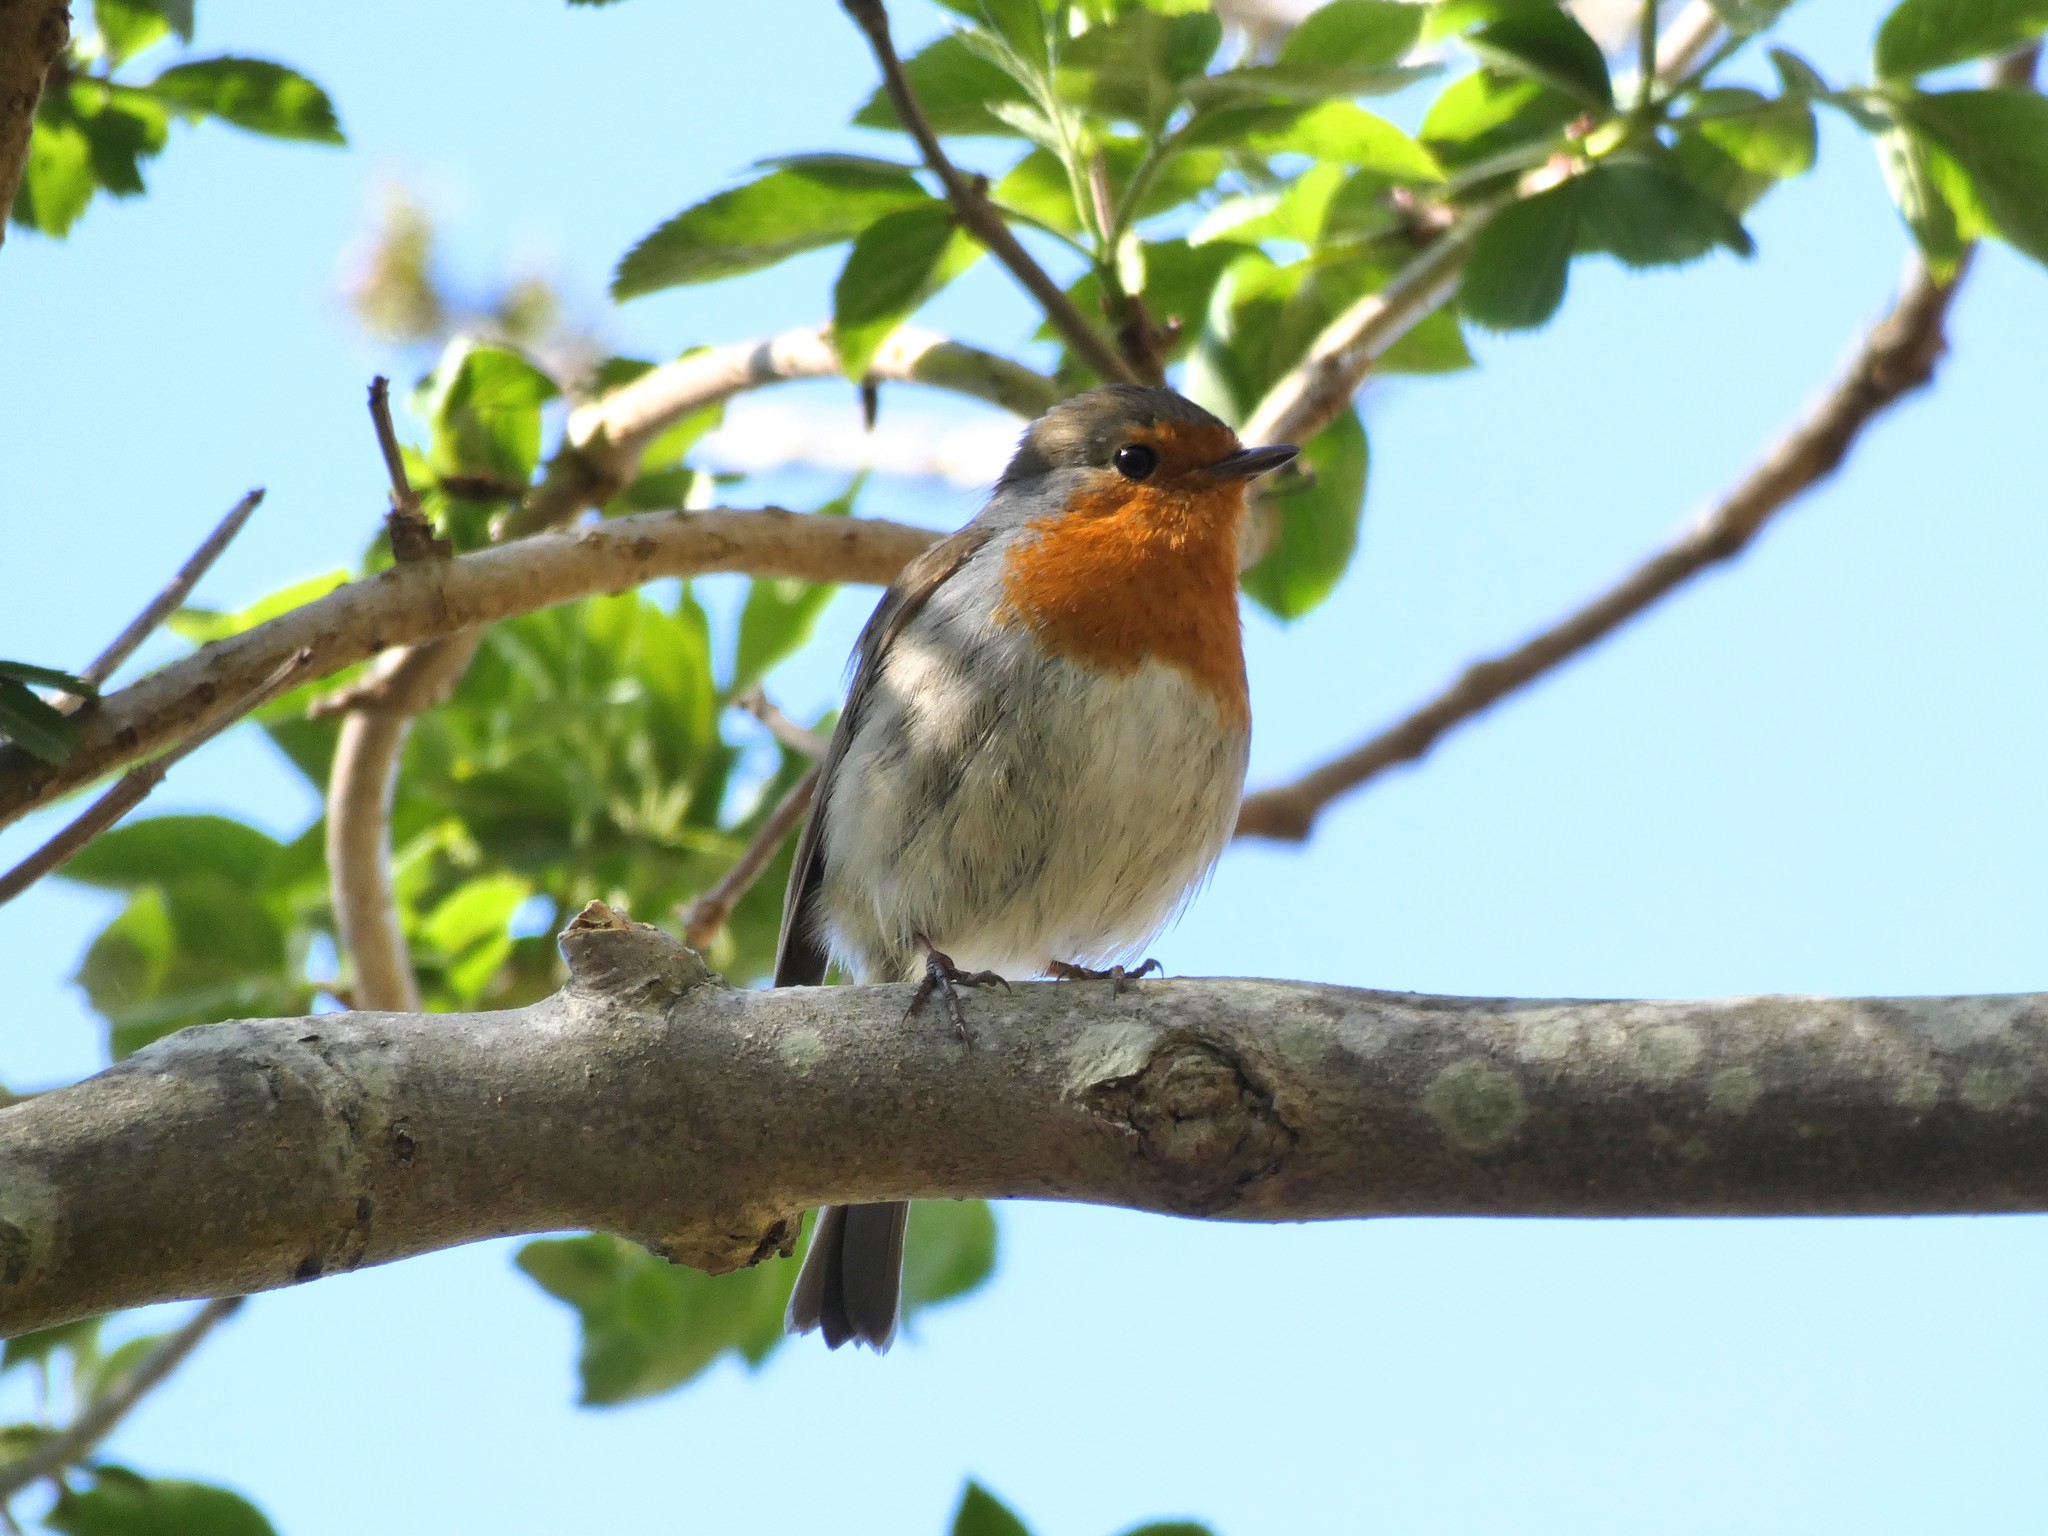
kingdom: Animalia
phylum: Chordata
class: Aves
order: Passeriformes
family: Muscicapidae
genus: Erithacus
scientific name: Erithacus rubecula
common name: European robin
